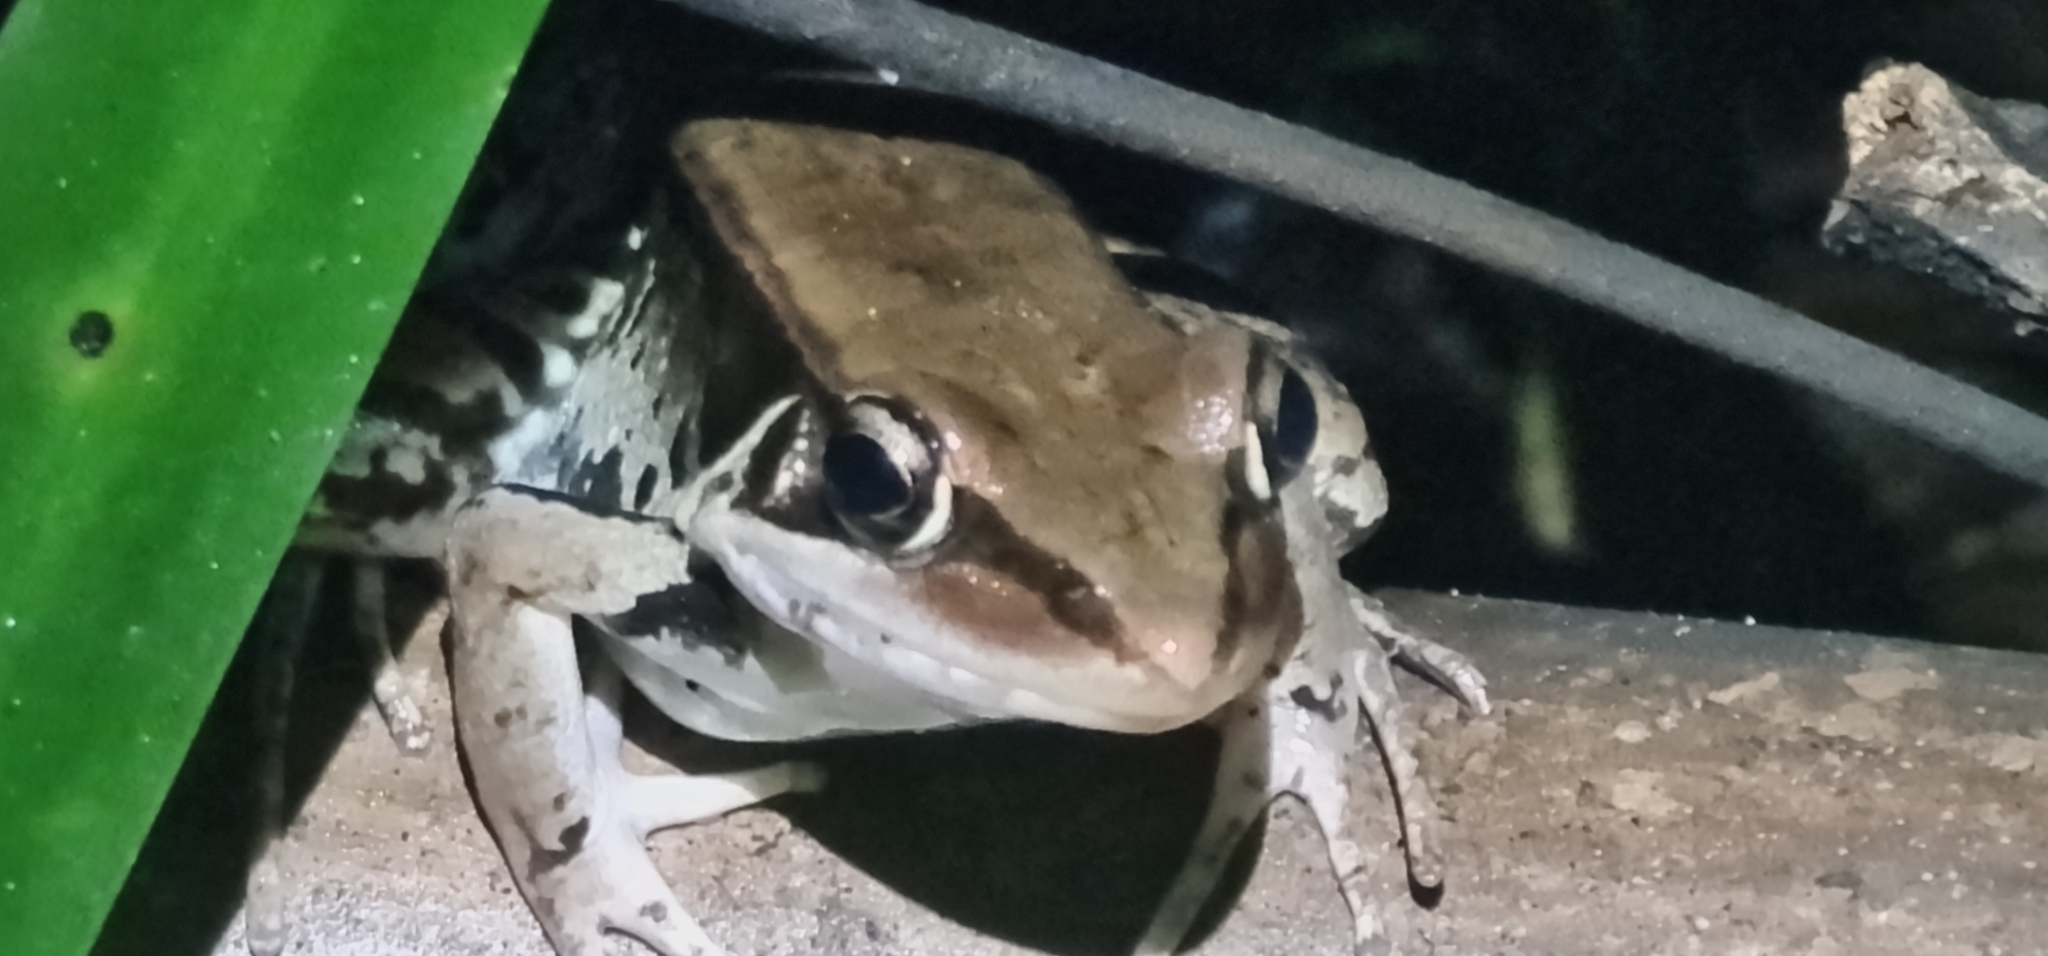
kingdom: Animalia
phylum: Chordata
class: Amphibia
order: Anura
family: Ranidae
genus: Sylvirana
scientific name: Sylvirana guentheri
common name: Guenther's amoy frog
